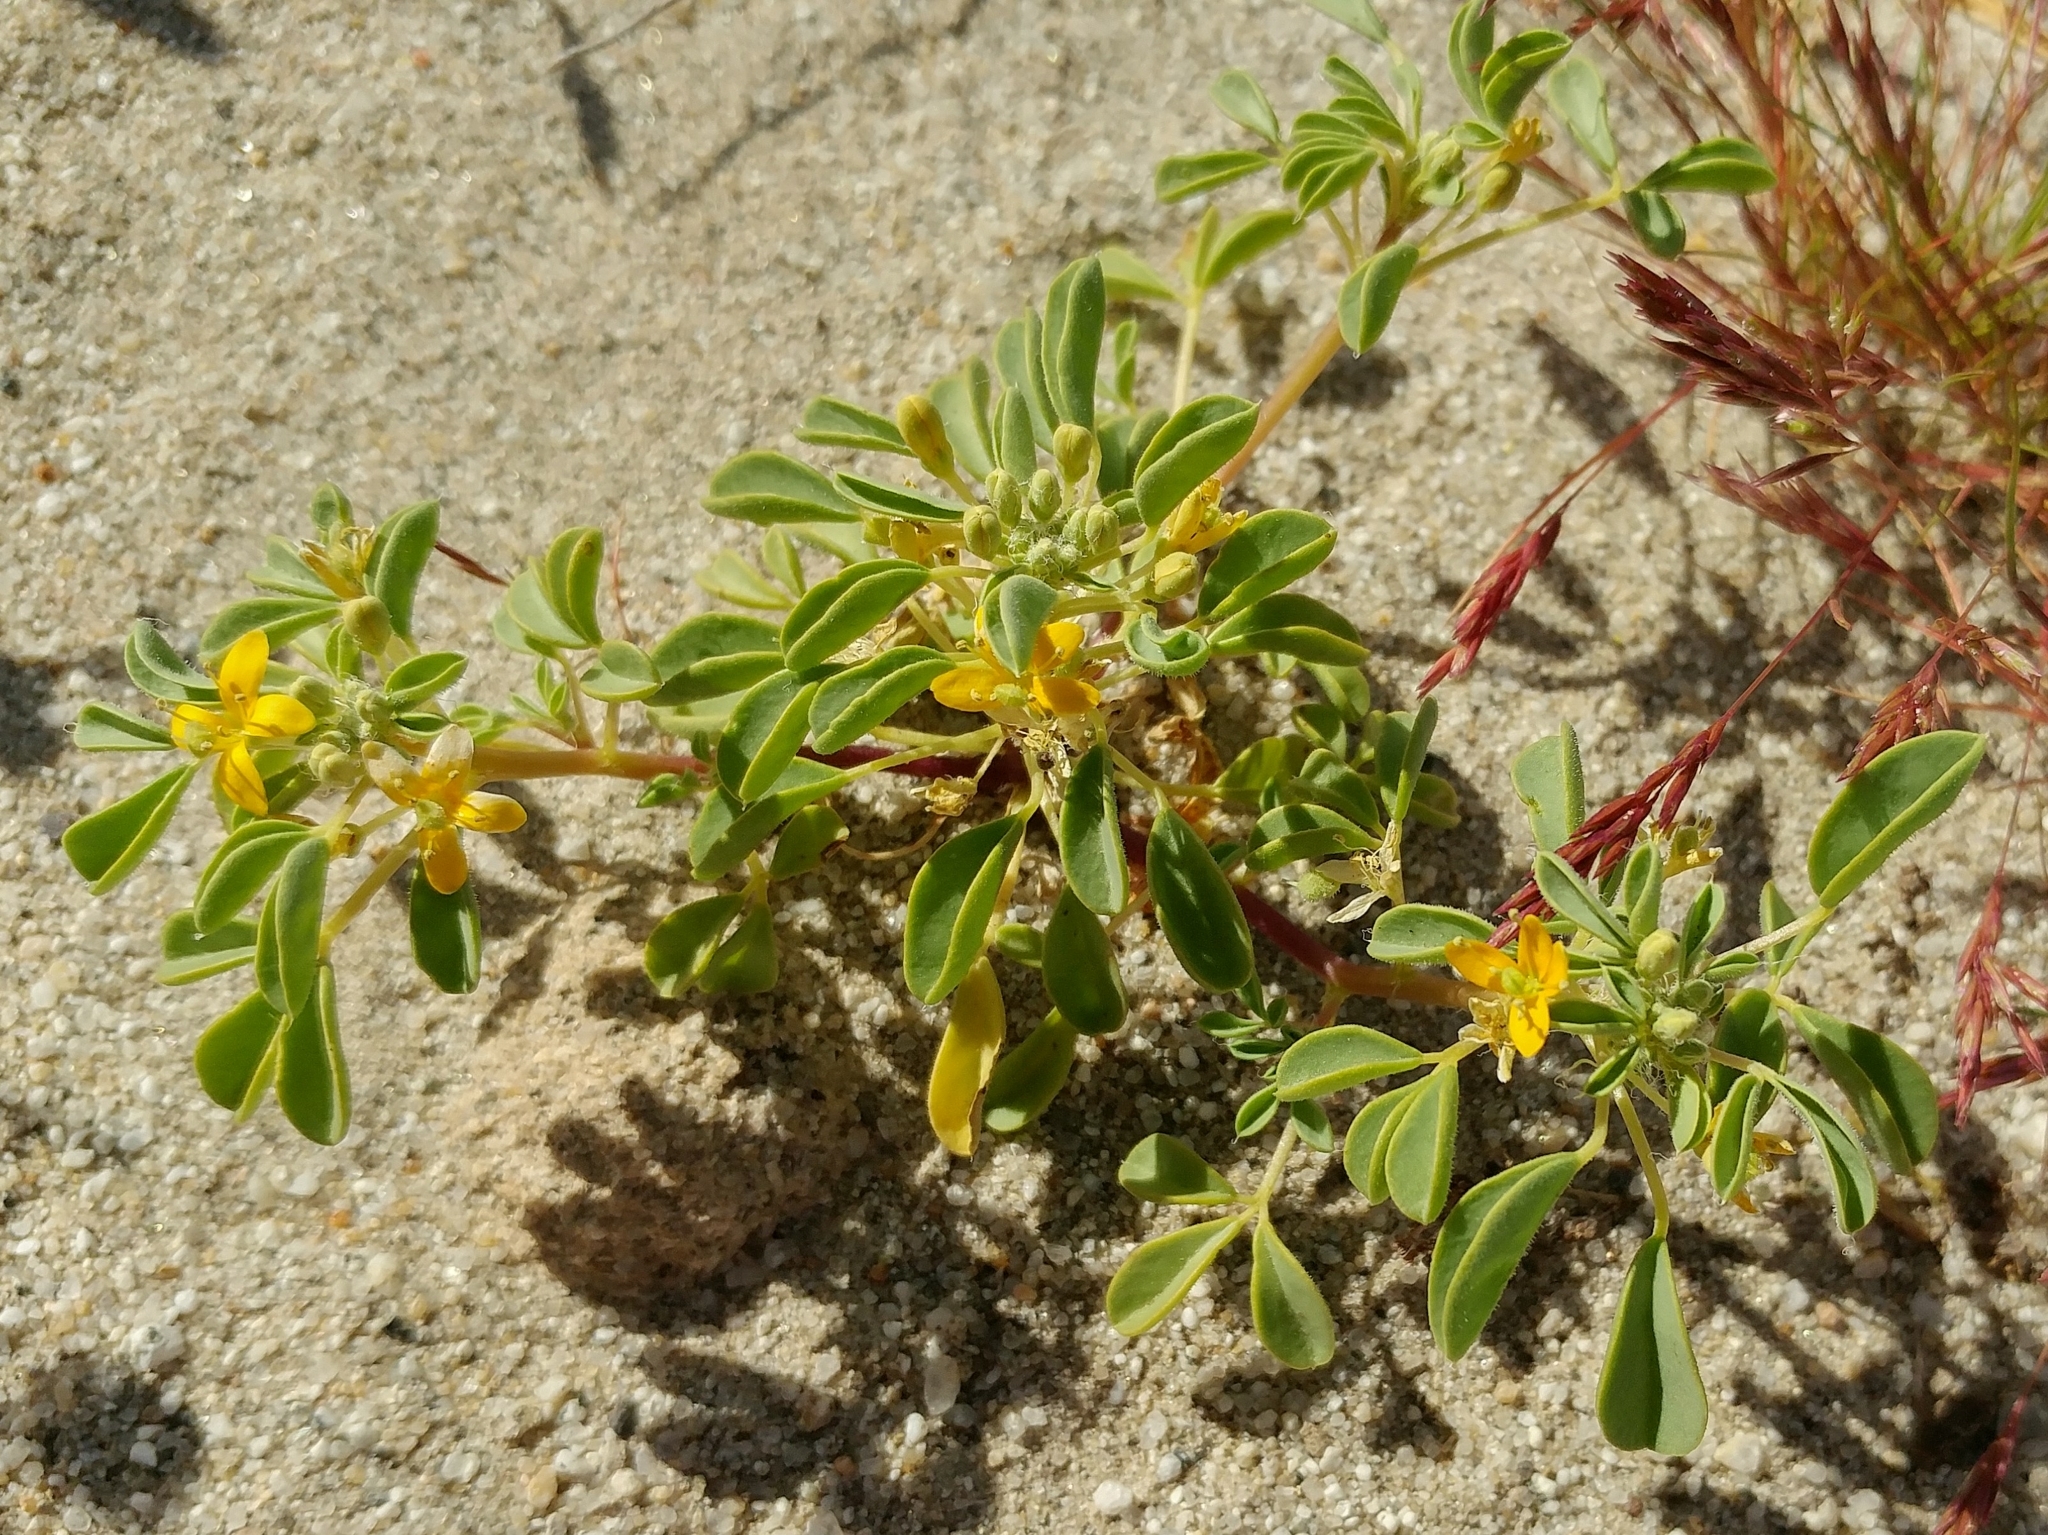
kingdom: Plantae
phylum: Tracheophyta
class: Magnoliopsida
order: Brassicales
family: Cleomaceae
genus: Cleomella
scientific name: Cleomella obtusifolia
